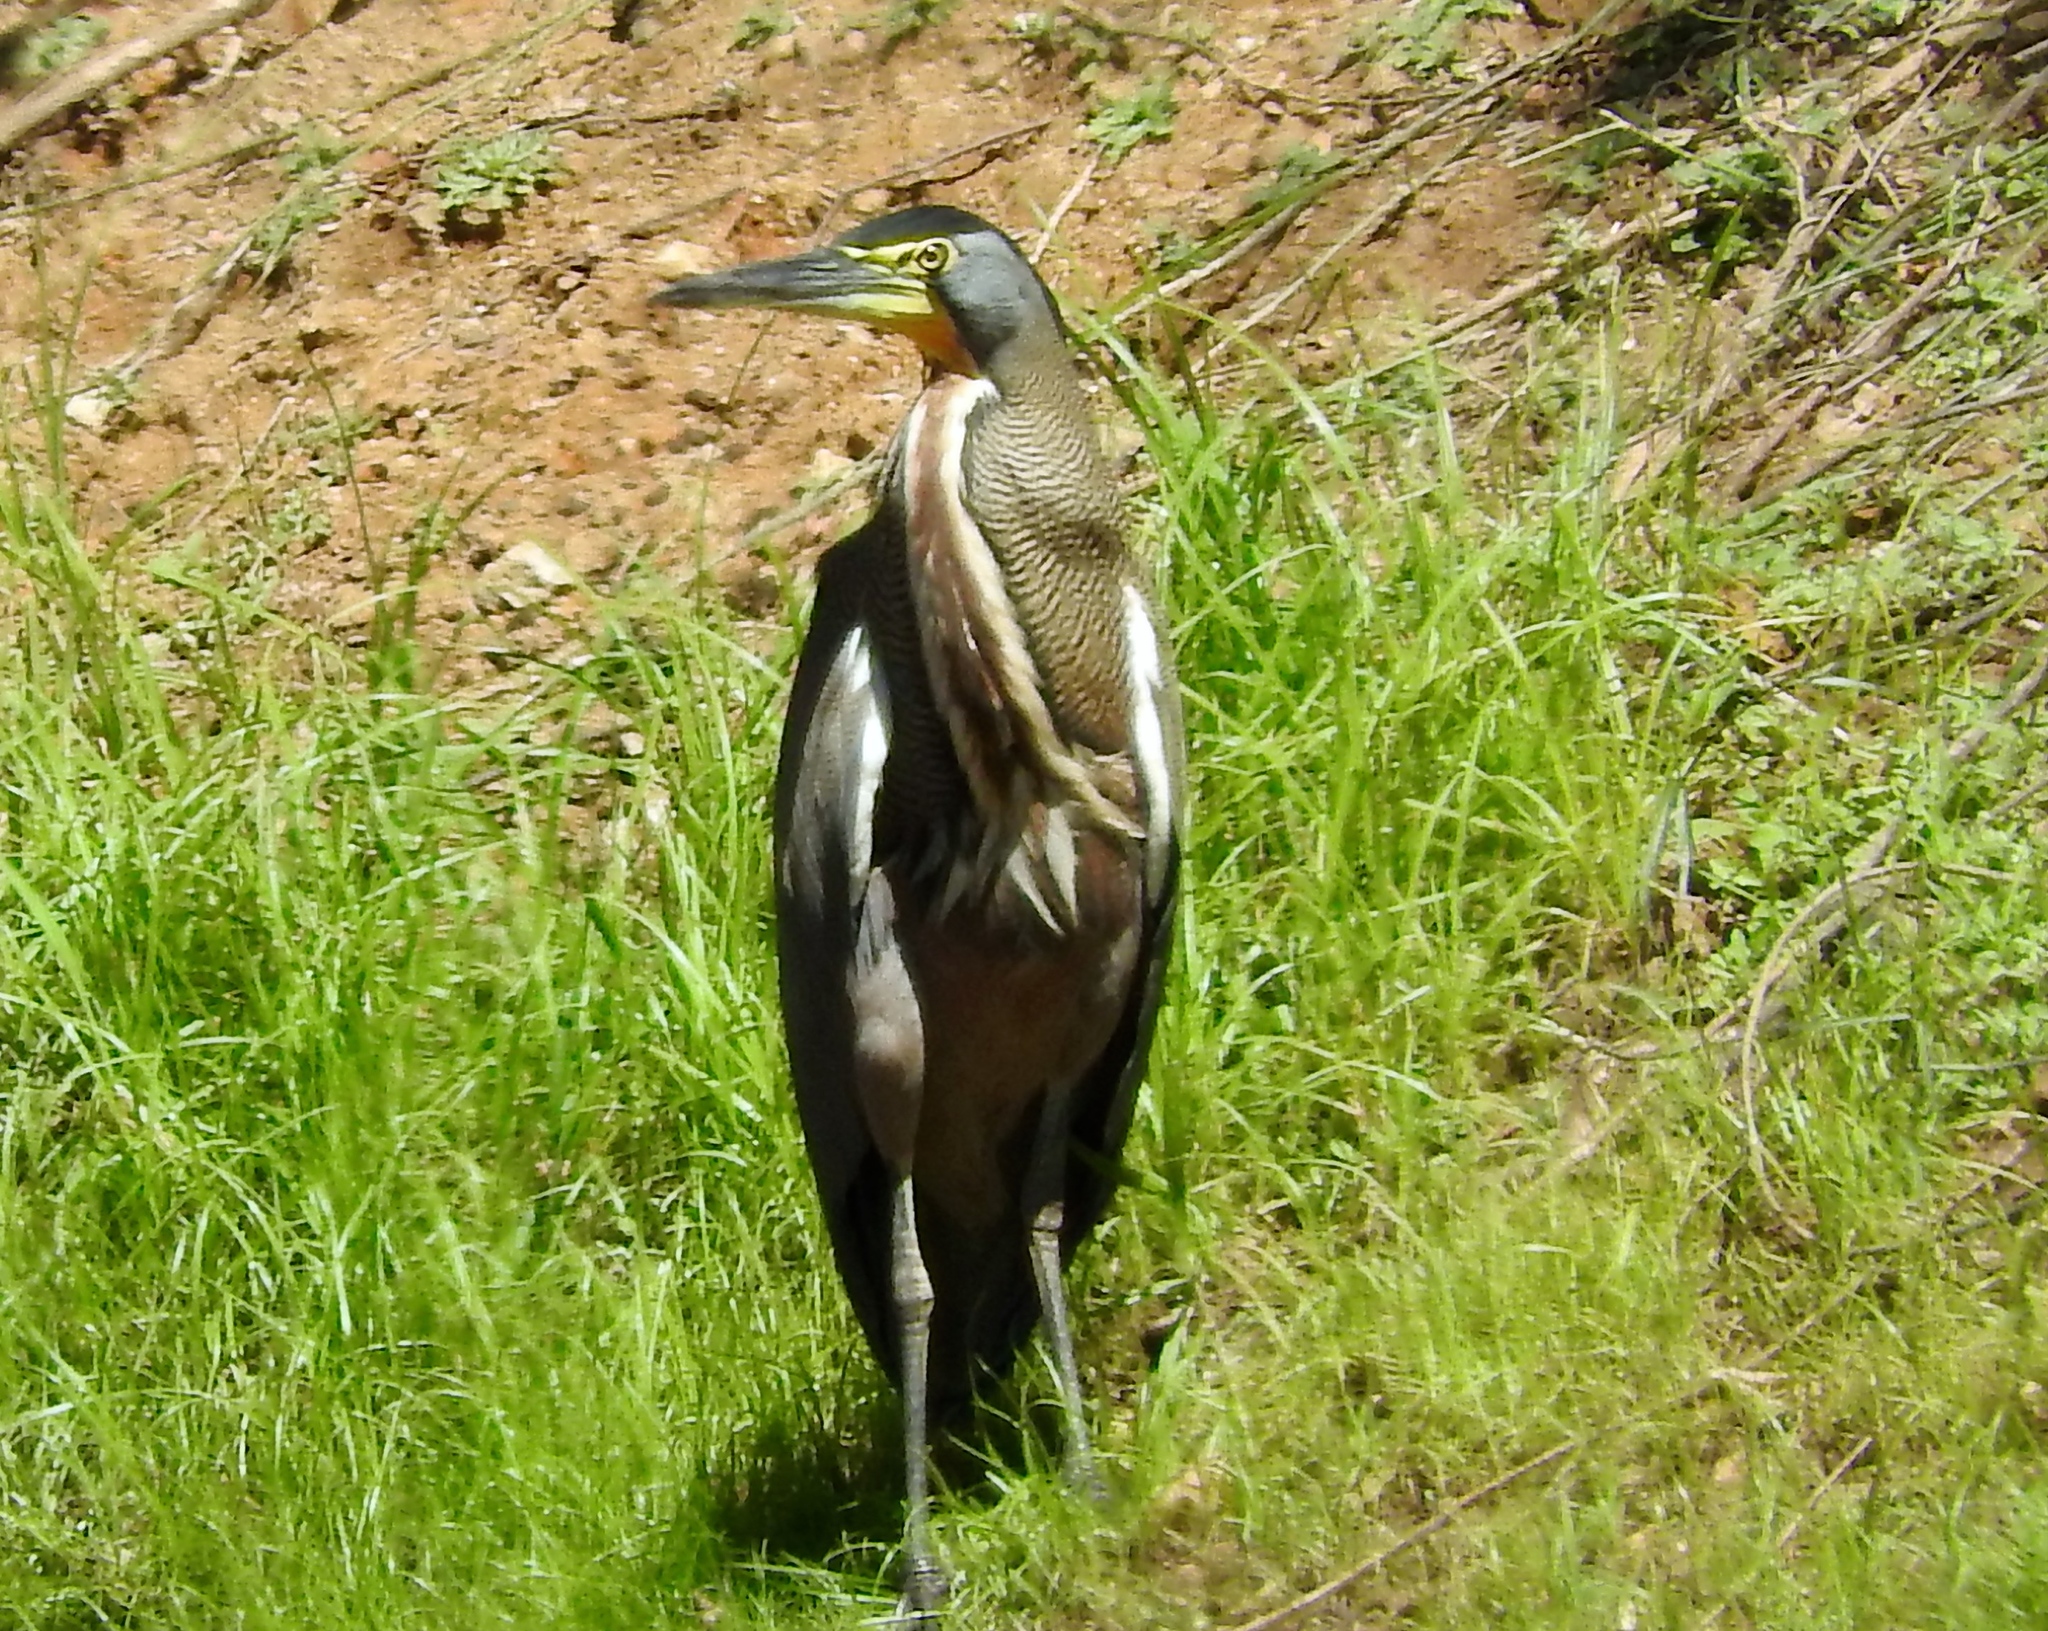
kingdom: Animalia
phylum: Chordata
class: Aves
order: Pelecaniformes
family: Ardeidae
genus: Tigrisoma
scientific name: Tigrisoma mexicanum
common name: Bare-throated tiger-heron
